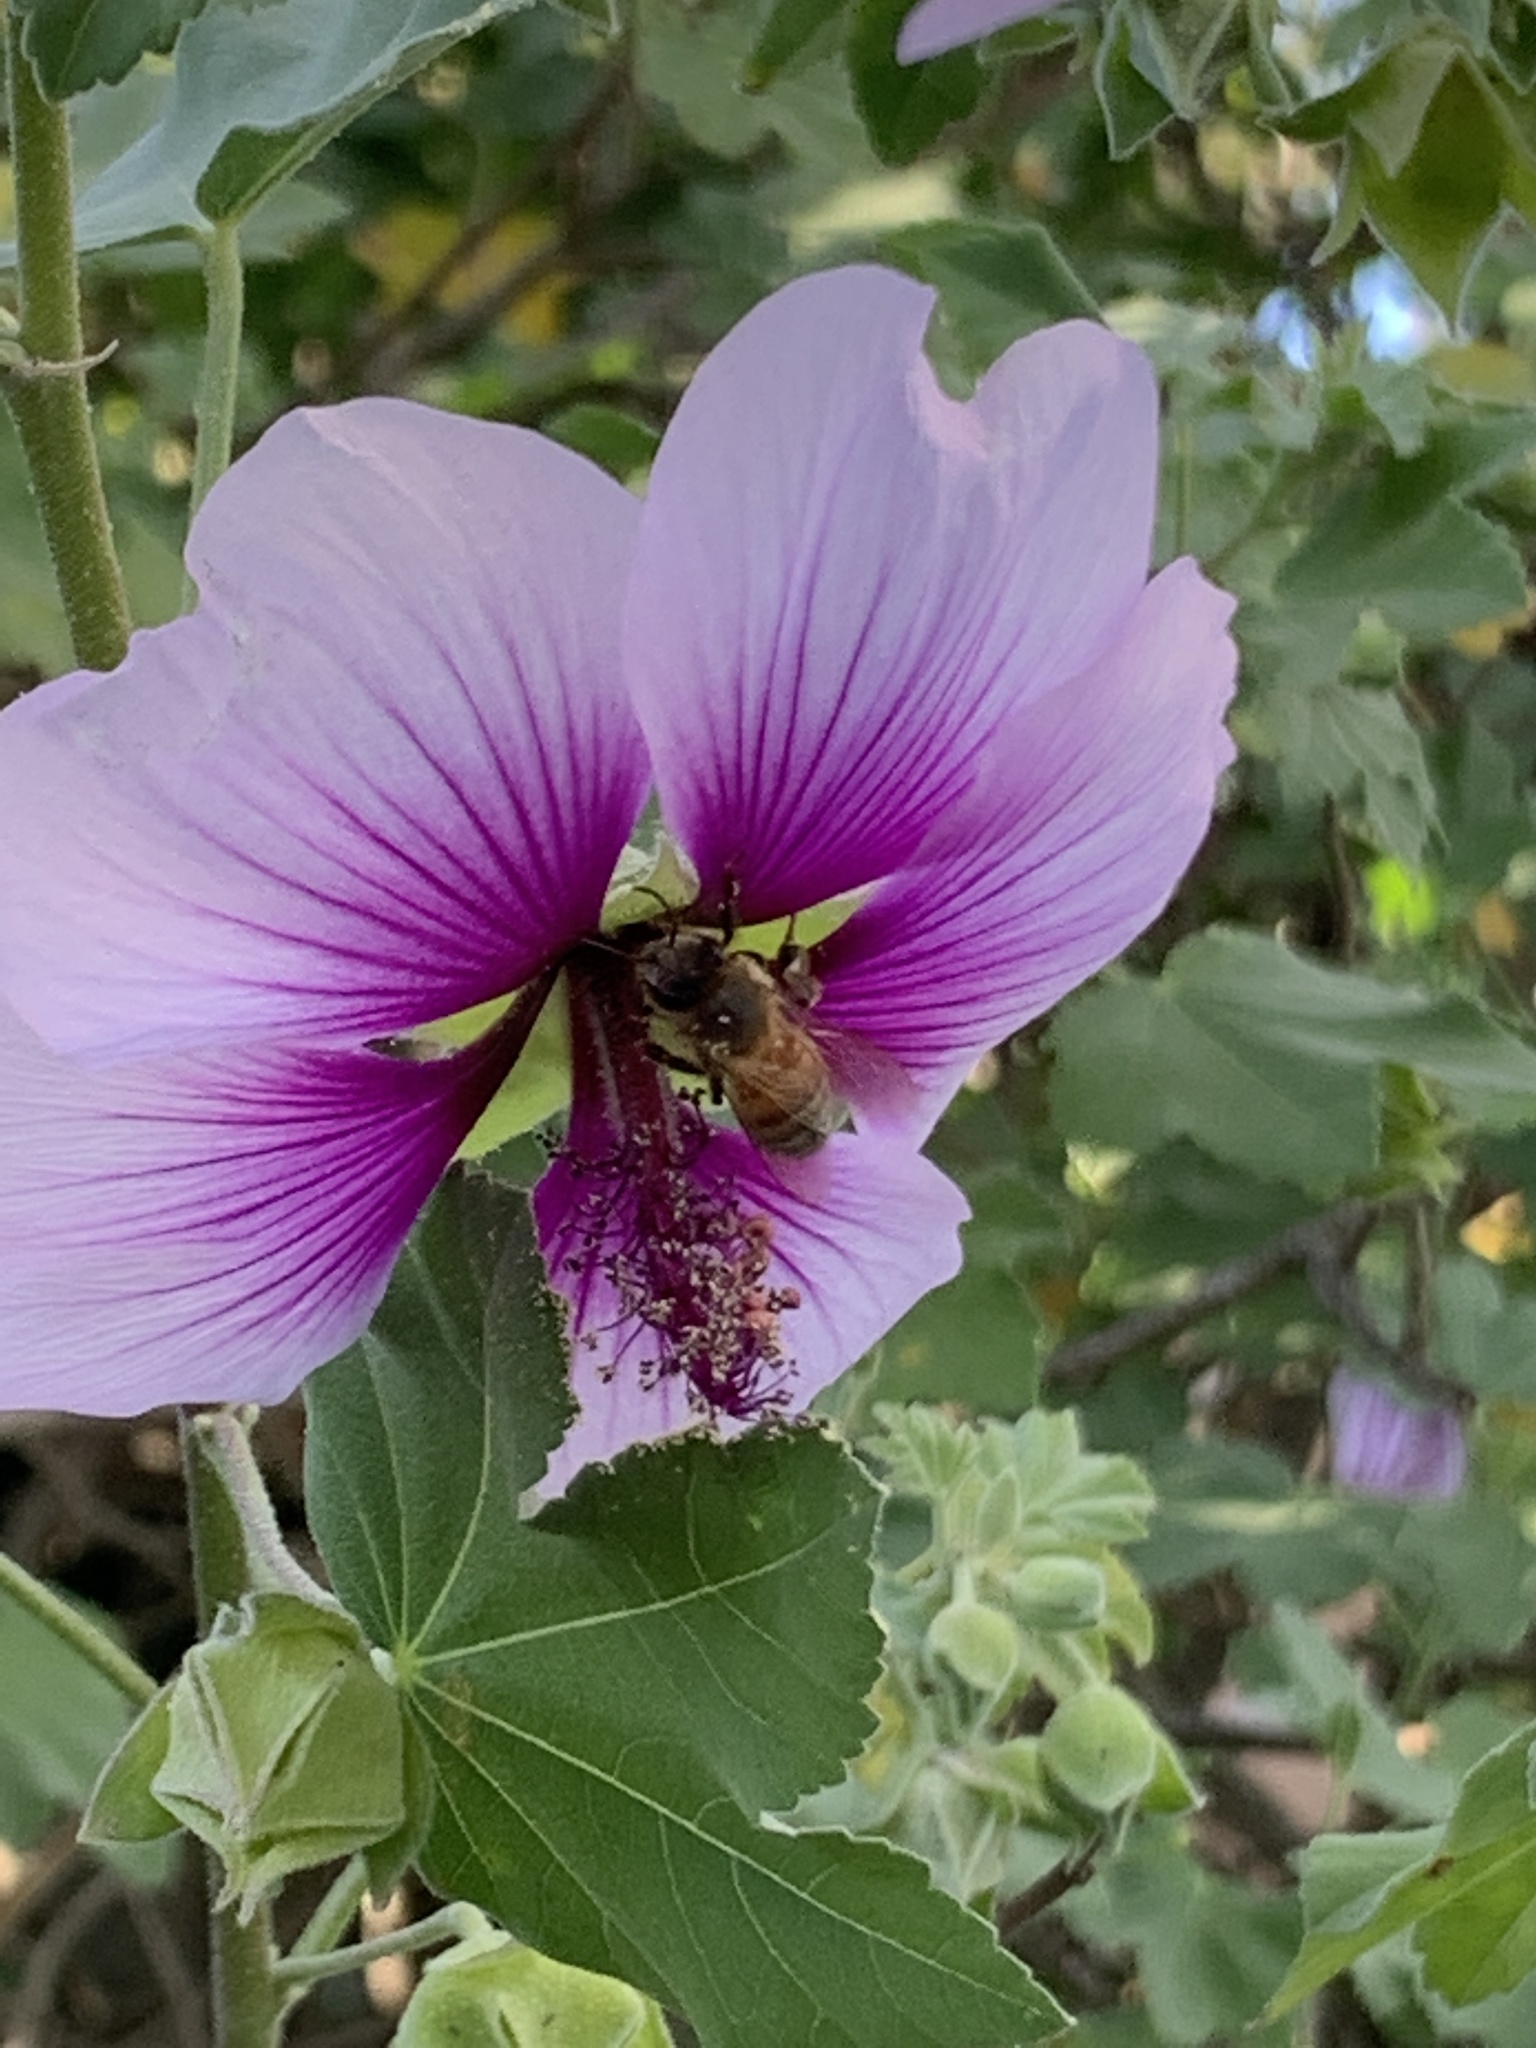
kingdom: Animalia
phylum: Arthropoda
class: Insecta
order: Hymenoptera
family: Apidae
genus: Apis
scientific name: Apis mellifera
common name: Honey bee
